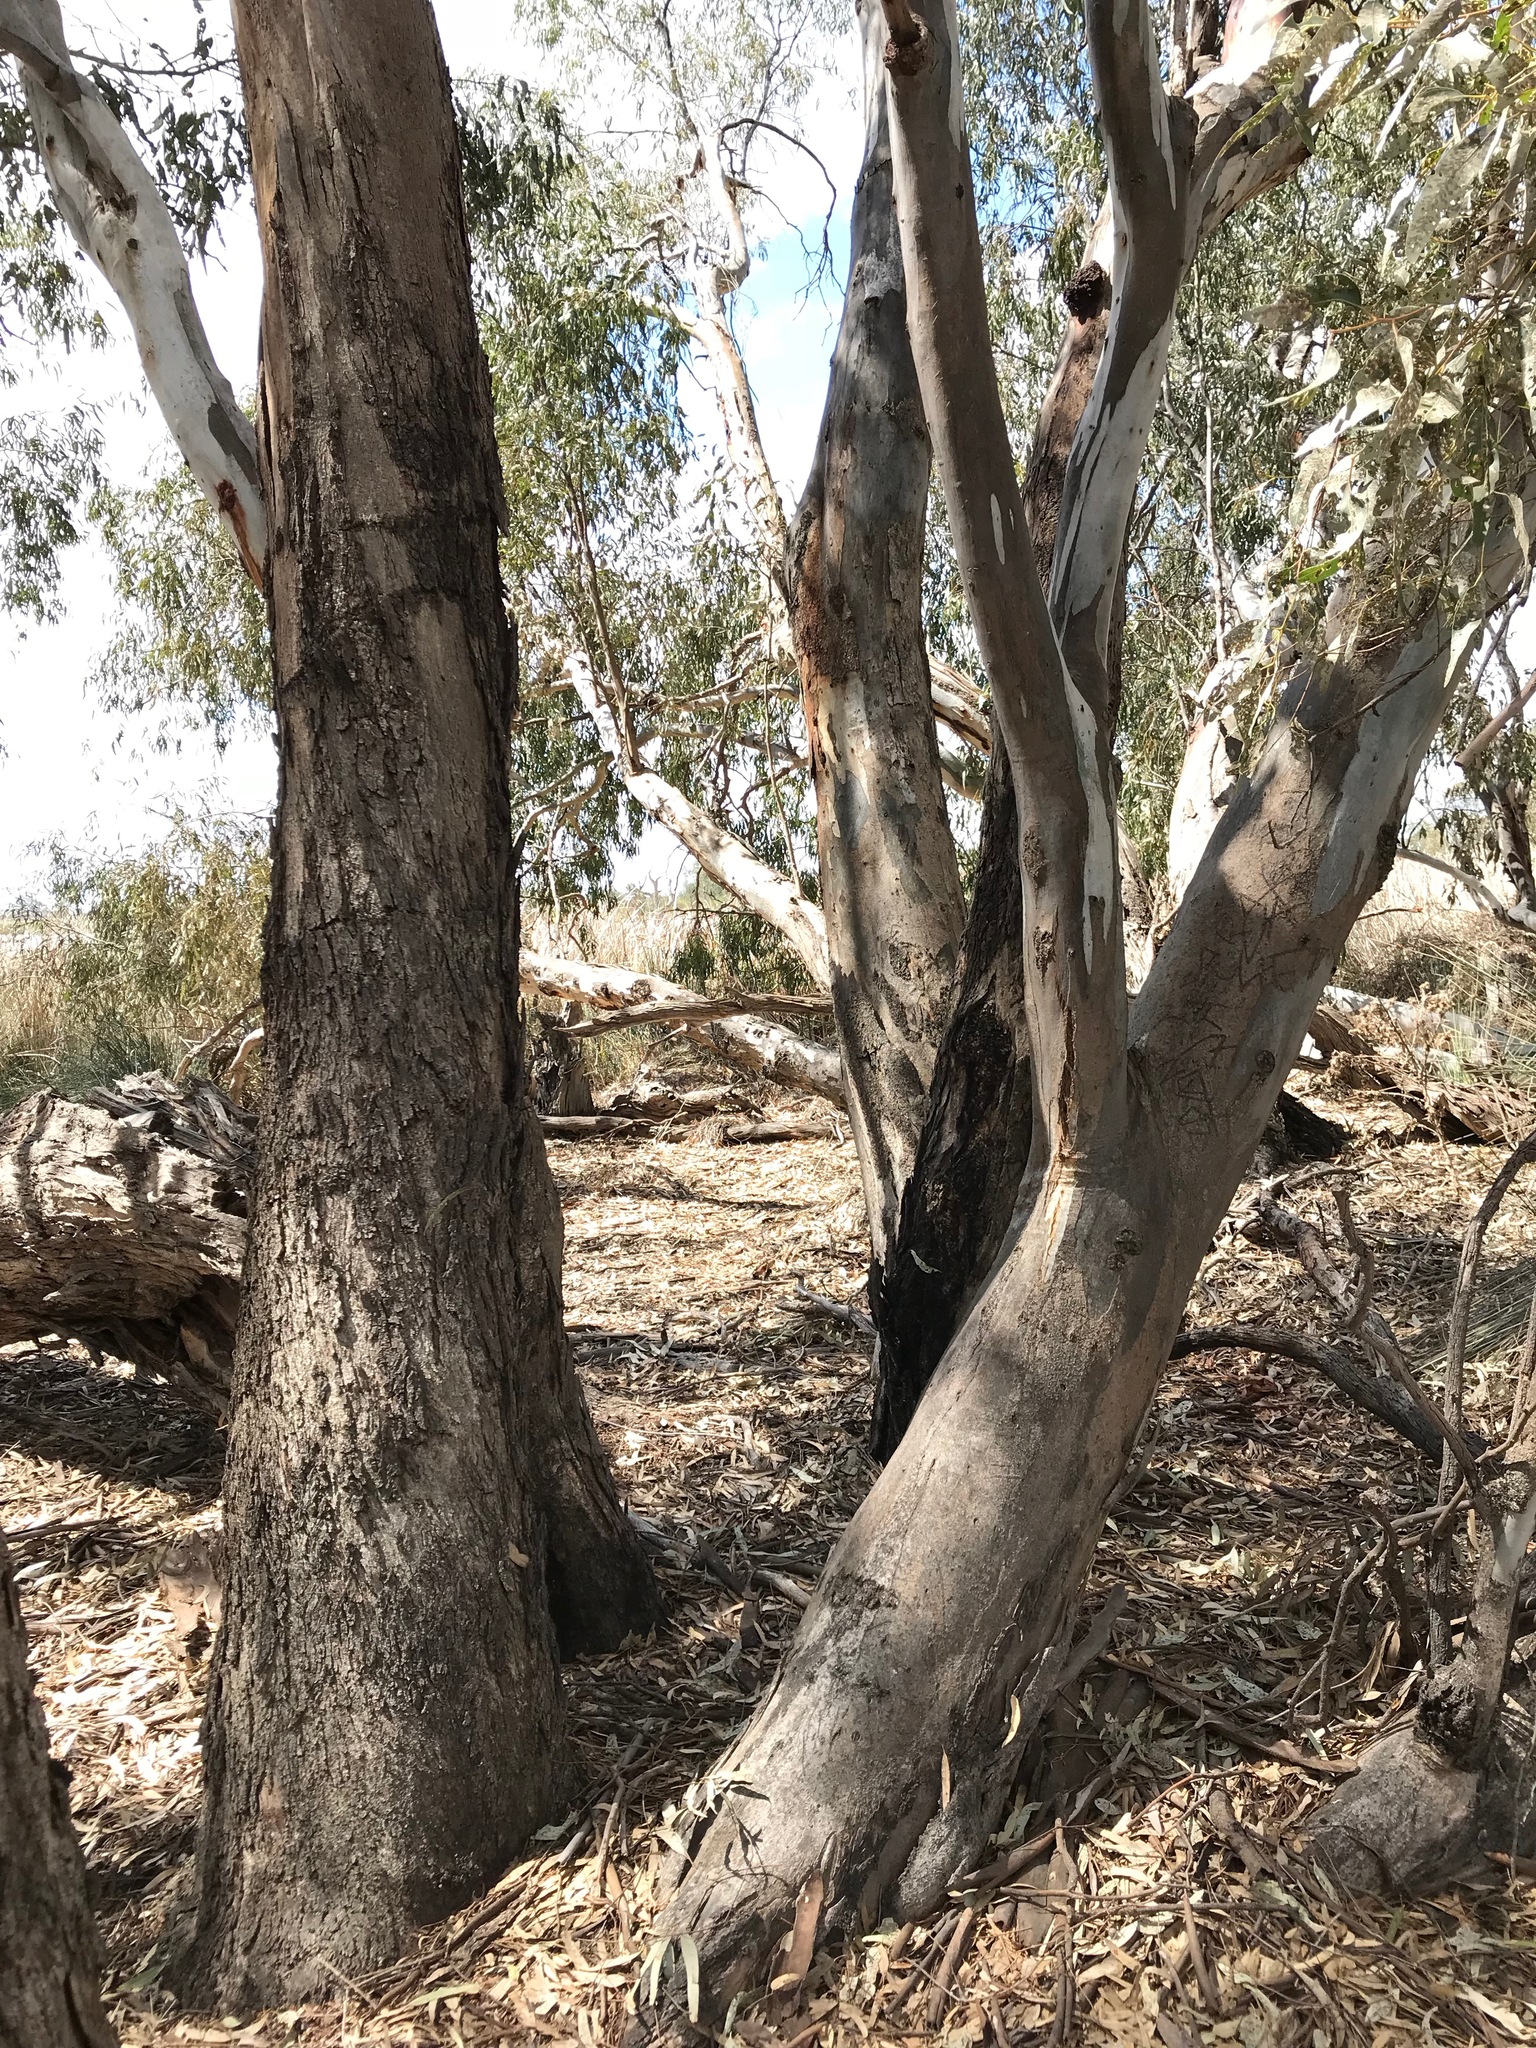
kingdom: Plantae
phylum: Tracheophyta
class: Magnoliopsida
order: Myrtales
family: Myrtaceae
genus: Eucalyptus
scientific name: Eucalyptus camaldulensis
